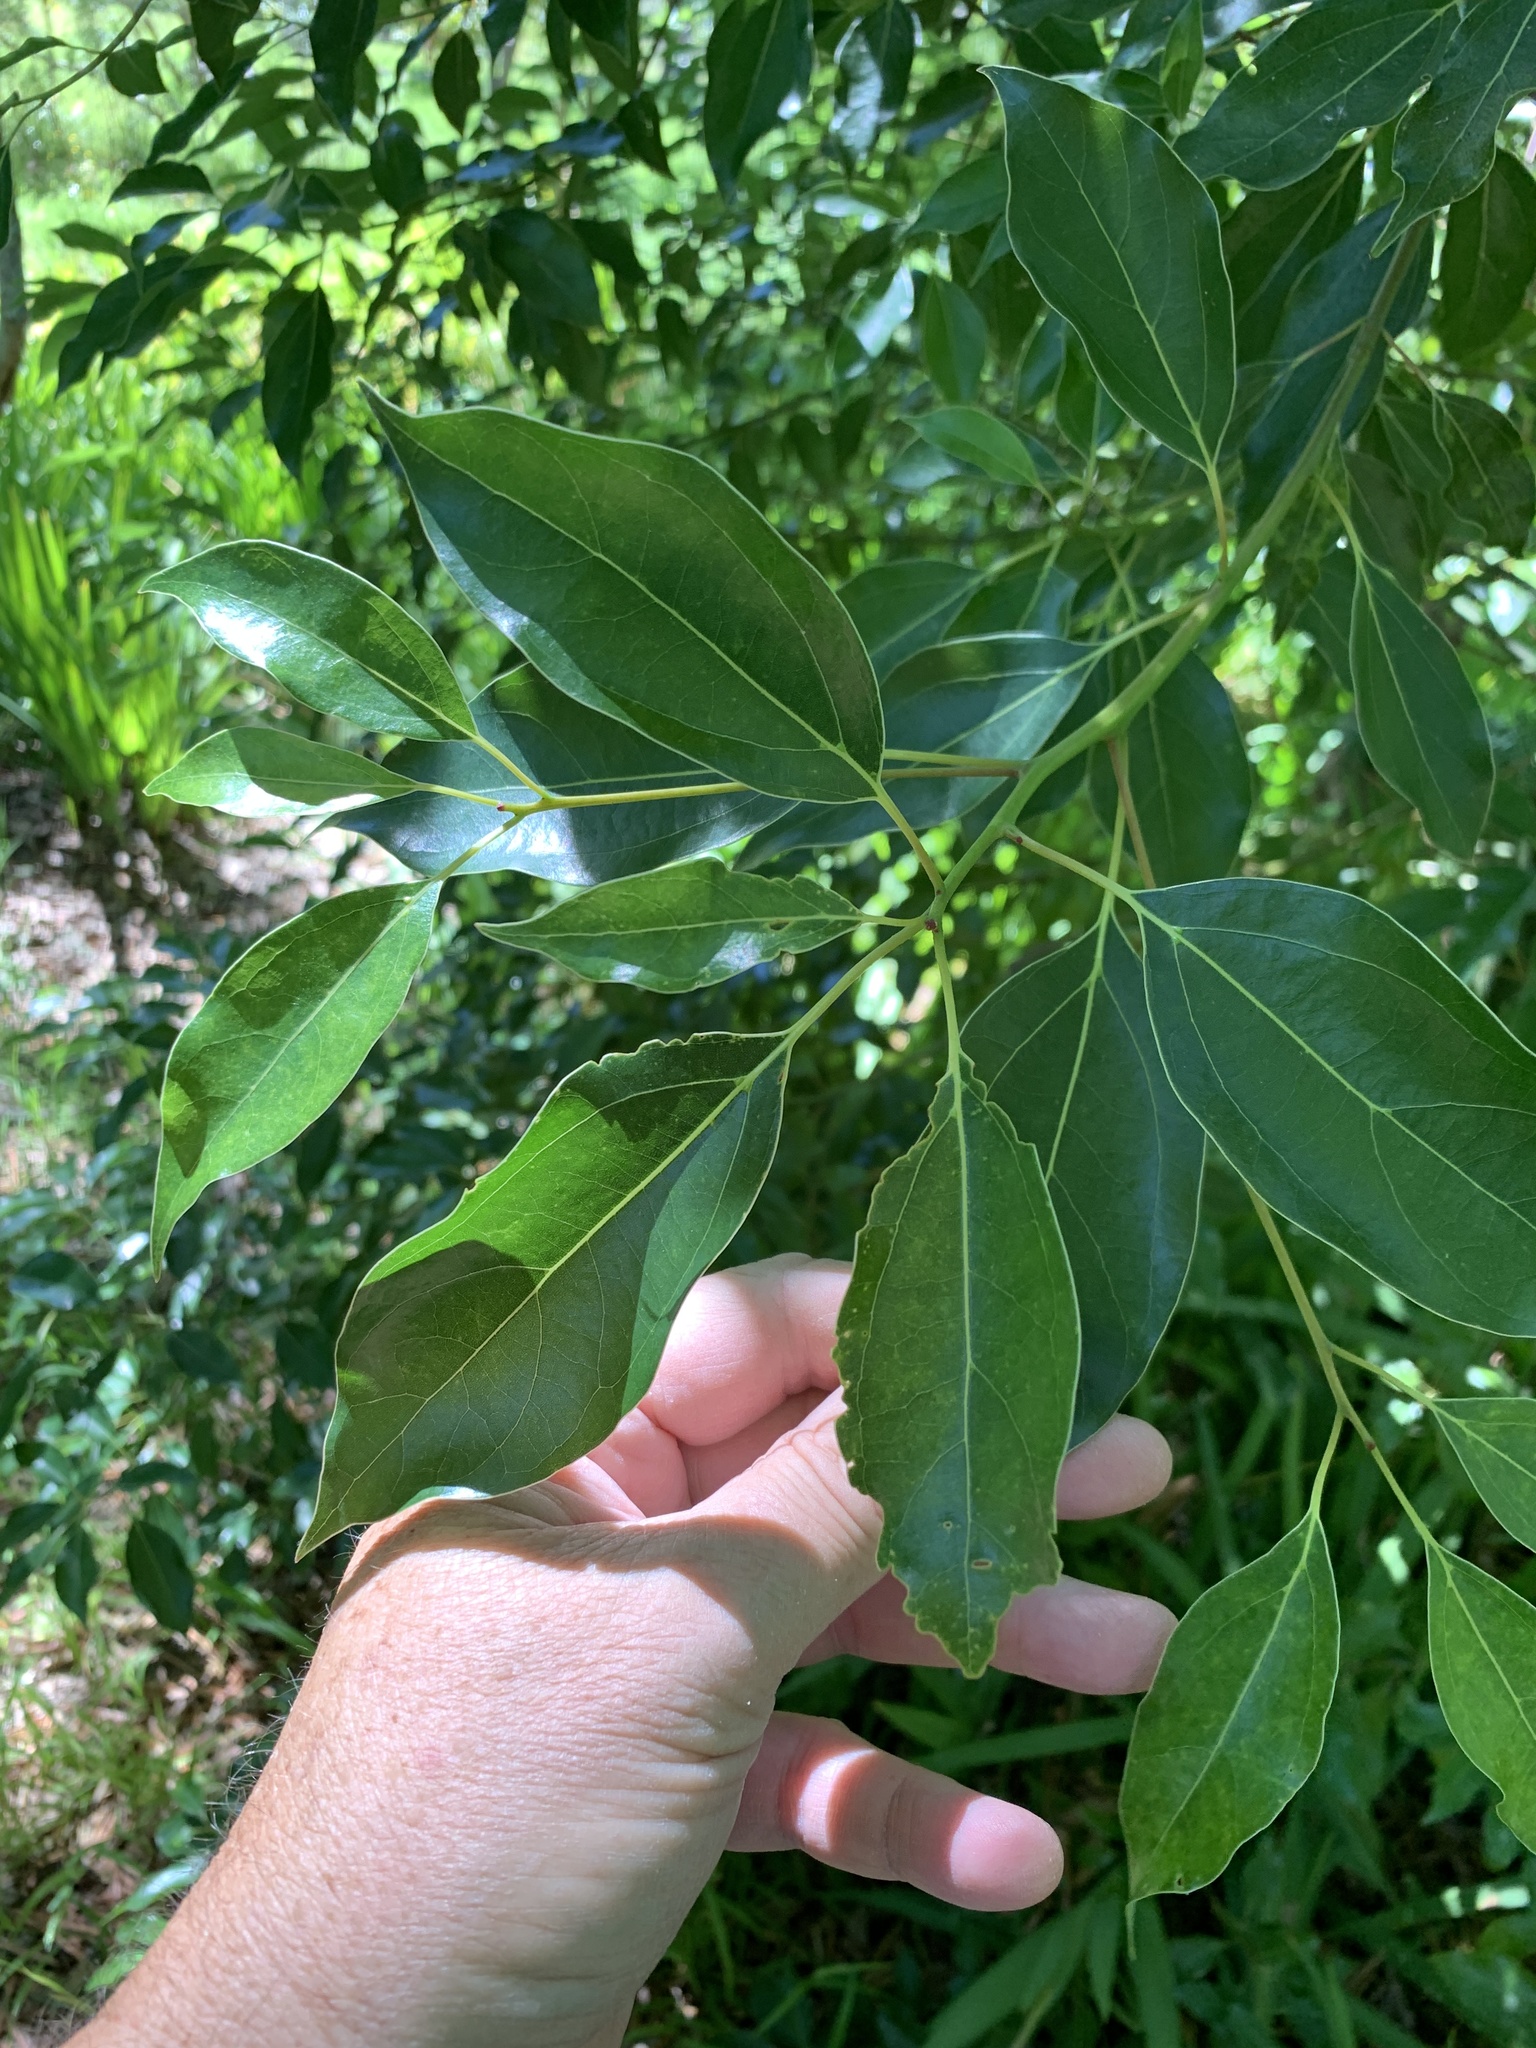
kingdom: Plantae
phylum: Tracheophyta
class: Magnoliopsida
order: Laurales
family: Lauraceae
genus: Cinnamomum
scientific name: Cinnamomum camphora
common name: Camphortree
